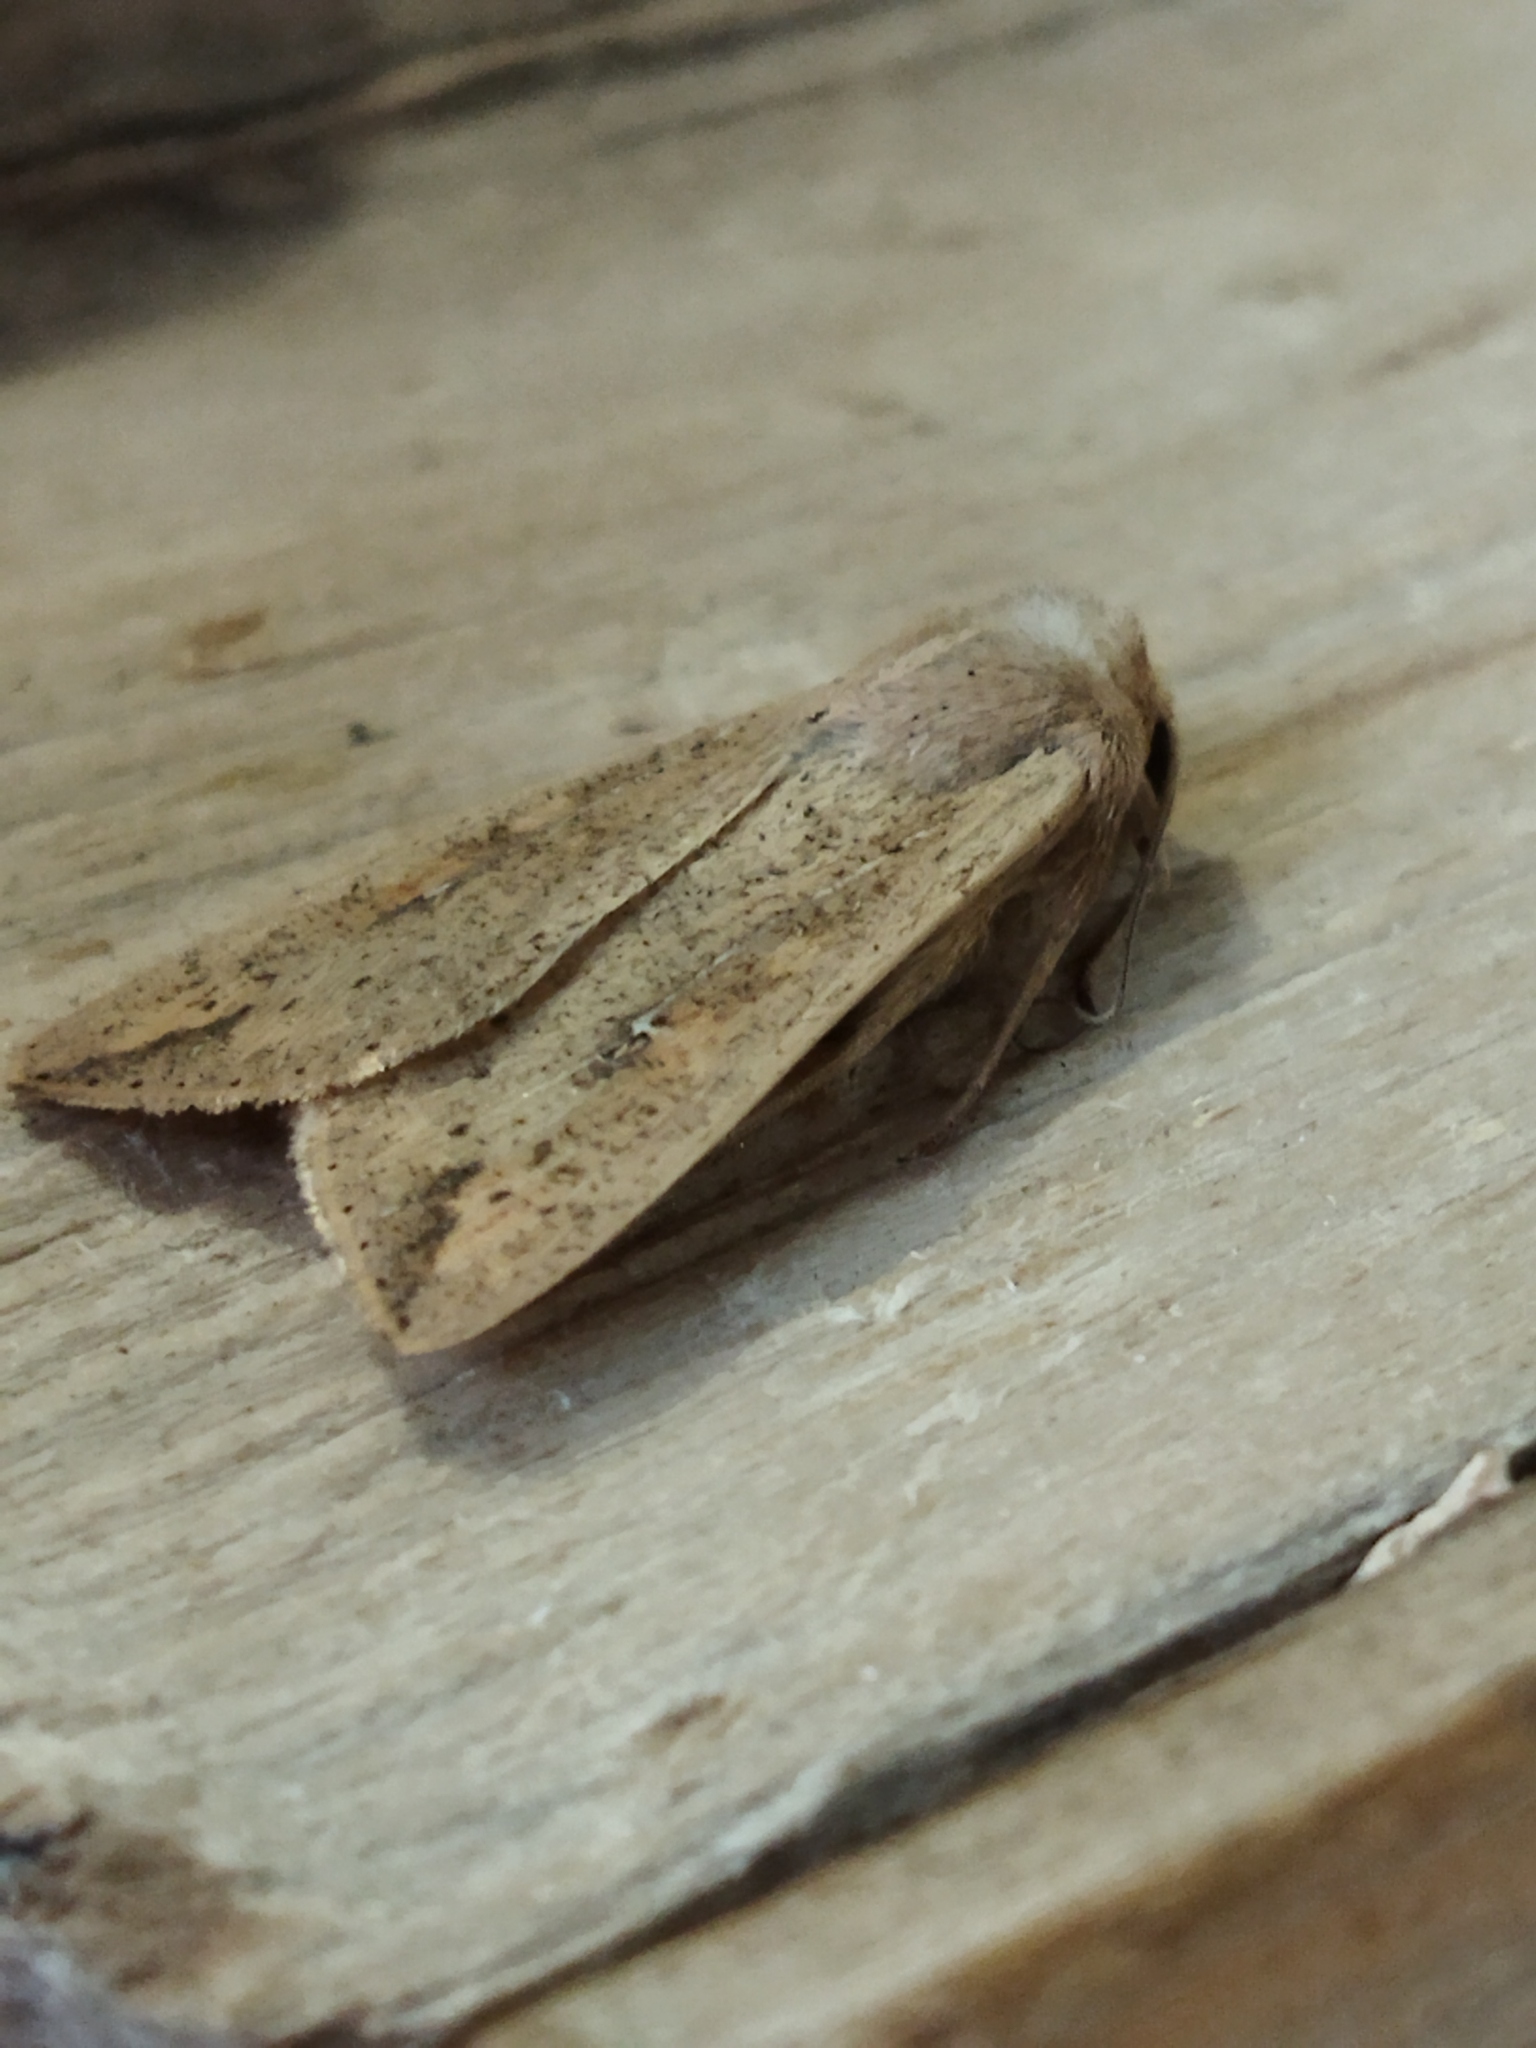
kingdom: Animalia
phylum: Arthropoda
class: Insecta
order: Lepidoptera
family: Noctuidae
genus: Mythimna
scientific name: Mythimna unipuncta
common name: White-speck
